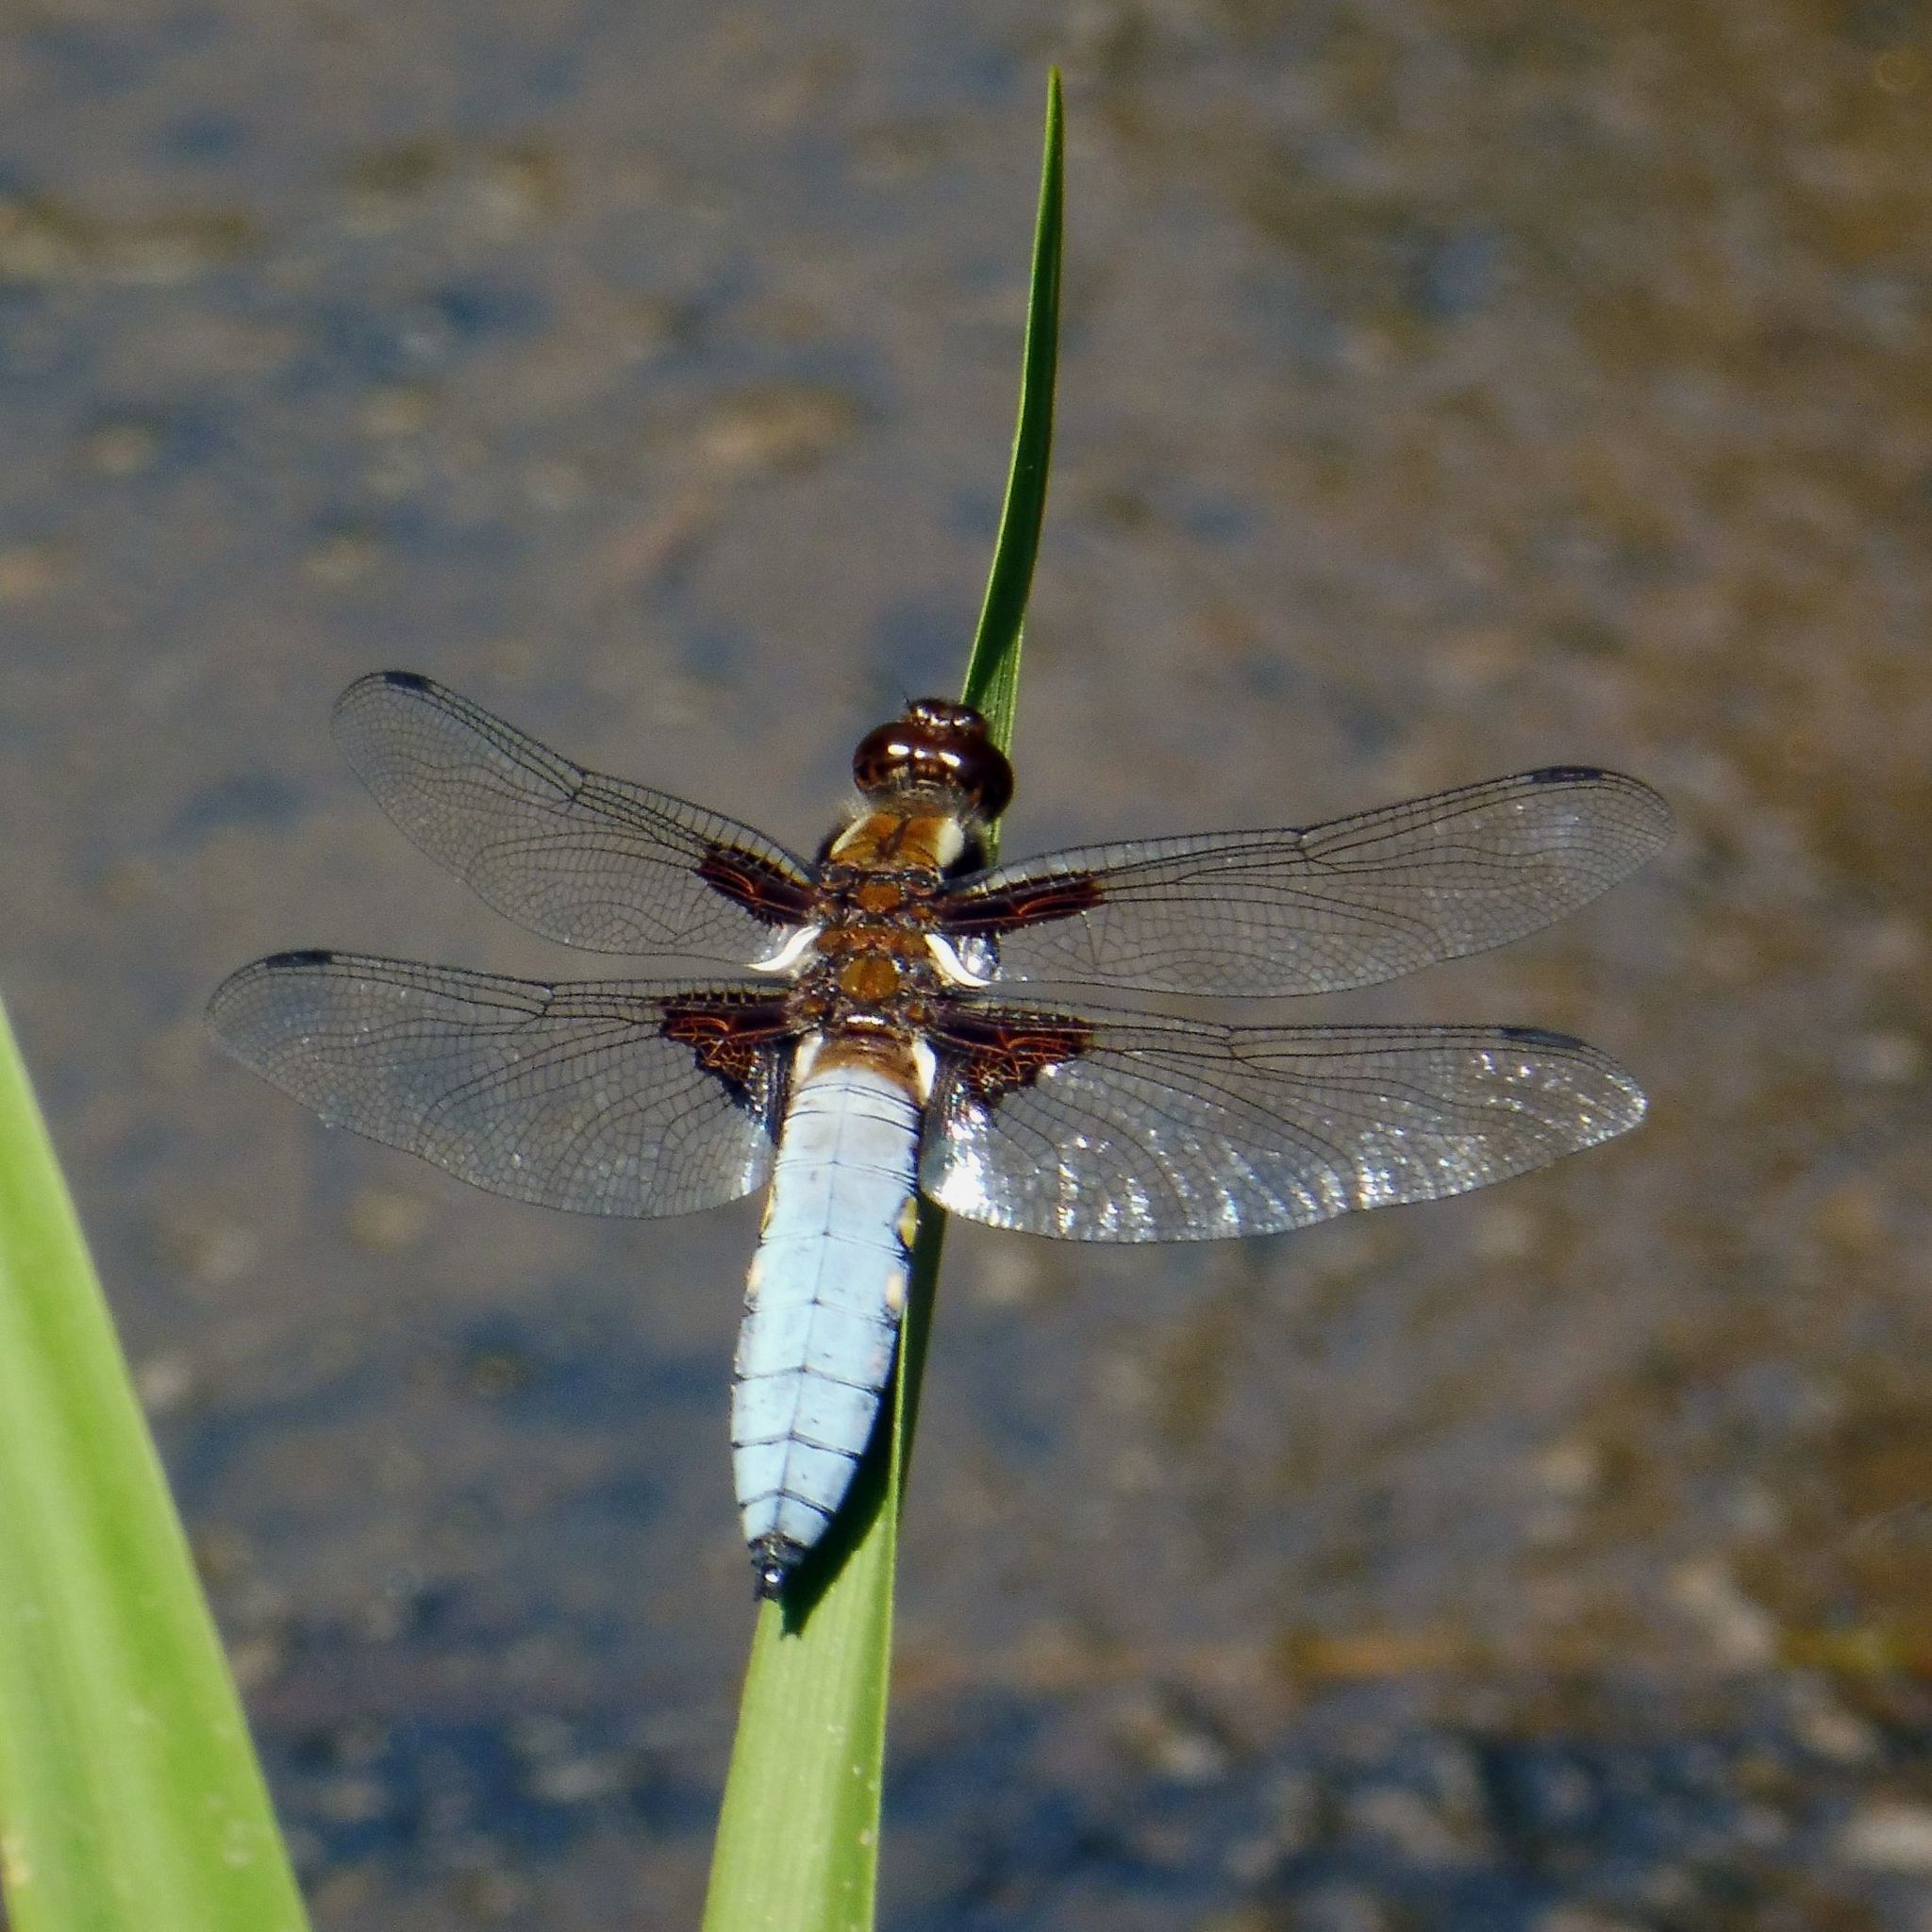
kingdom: Animalia
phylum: Arthropoda
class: Insecta
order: Odonata
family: Libellulidae
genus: Libellula
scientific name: Libellula depressa
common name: Broad-bodied chaser
